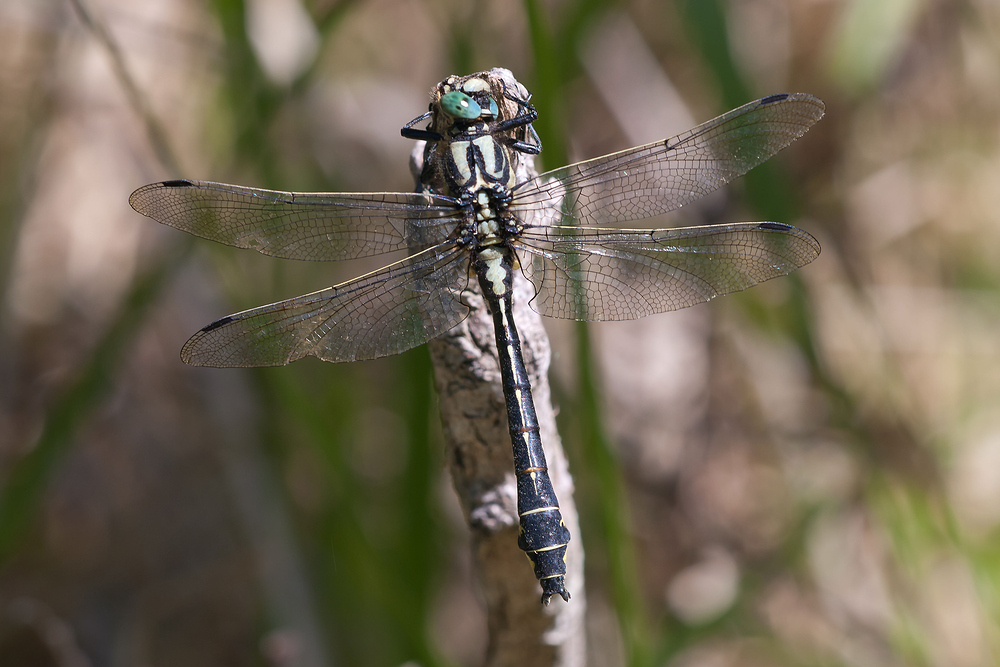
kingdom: Animalia
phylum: Arthropoda
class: Insecta
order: Odonata
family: Gomphidae
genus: Gomphus
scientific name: Gomphus vulgatissimus
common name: Club-tailed dragonfly
